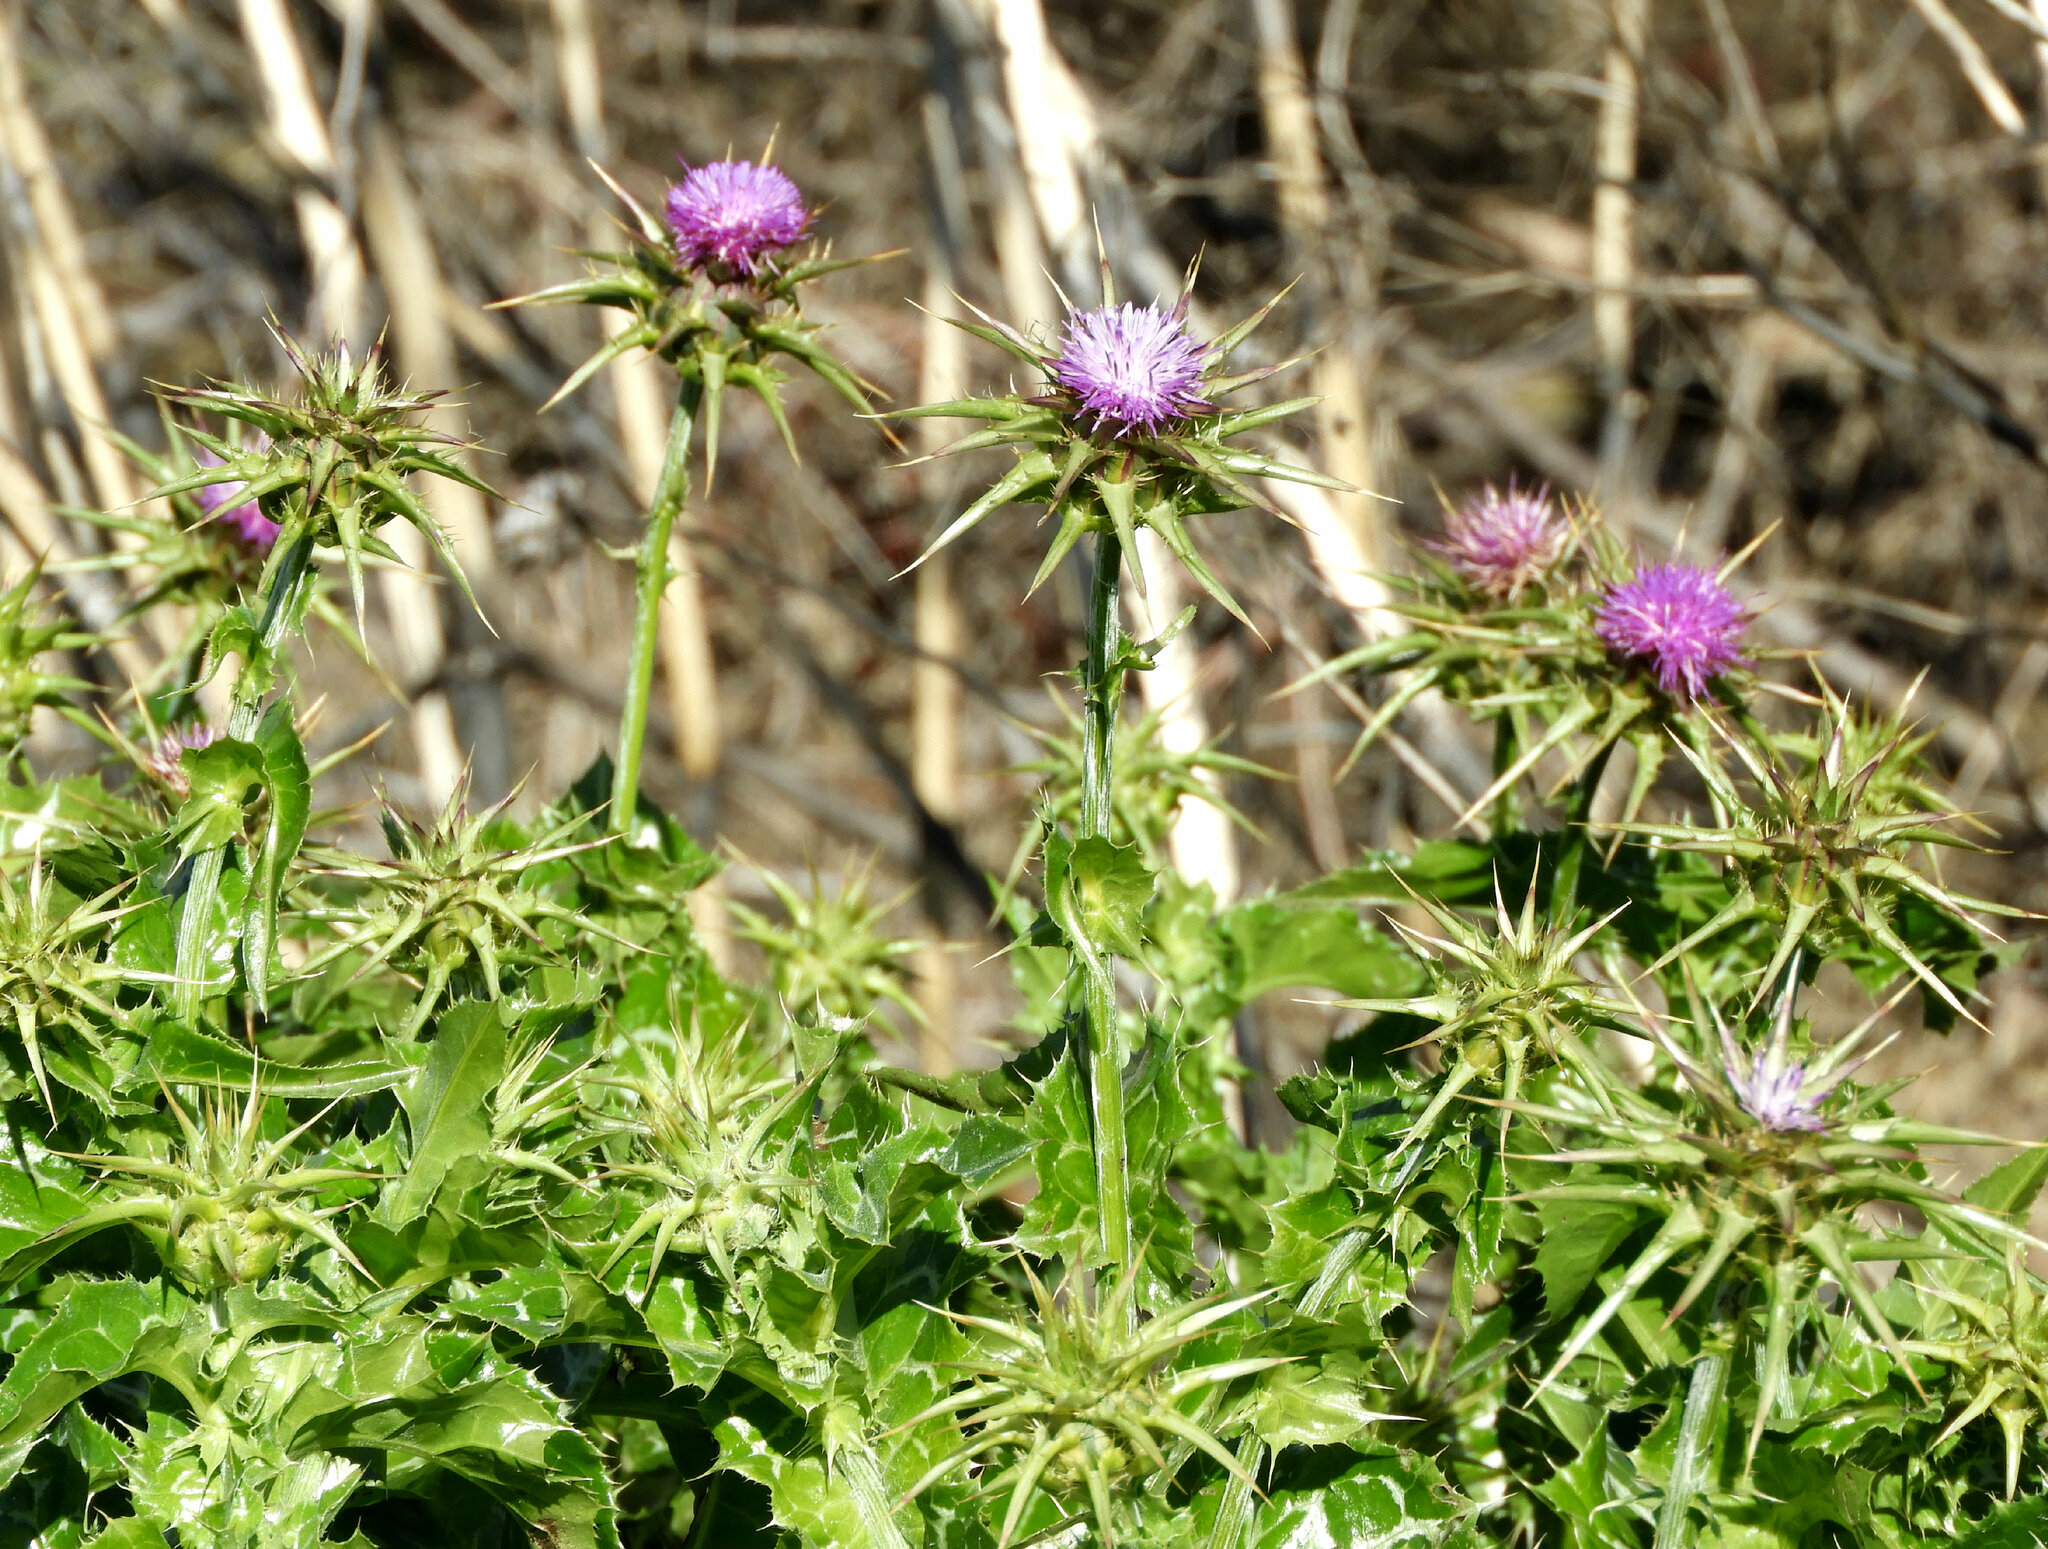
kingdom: Plantae
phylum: Tracheophyta
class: Magnoliopsida
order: Asterales
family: Asteraceae
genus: Silybum
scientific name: Silybum marianum
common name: Milk thistle
